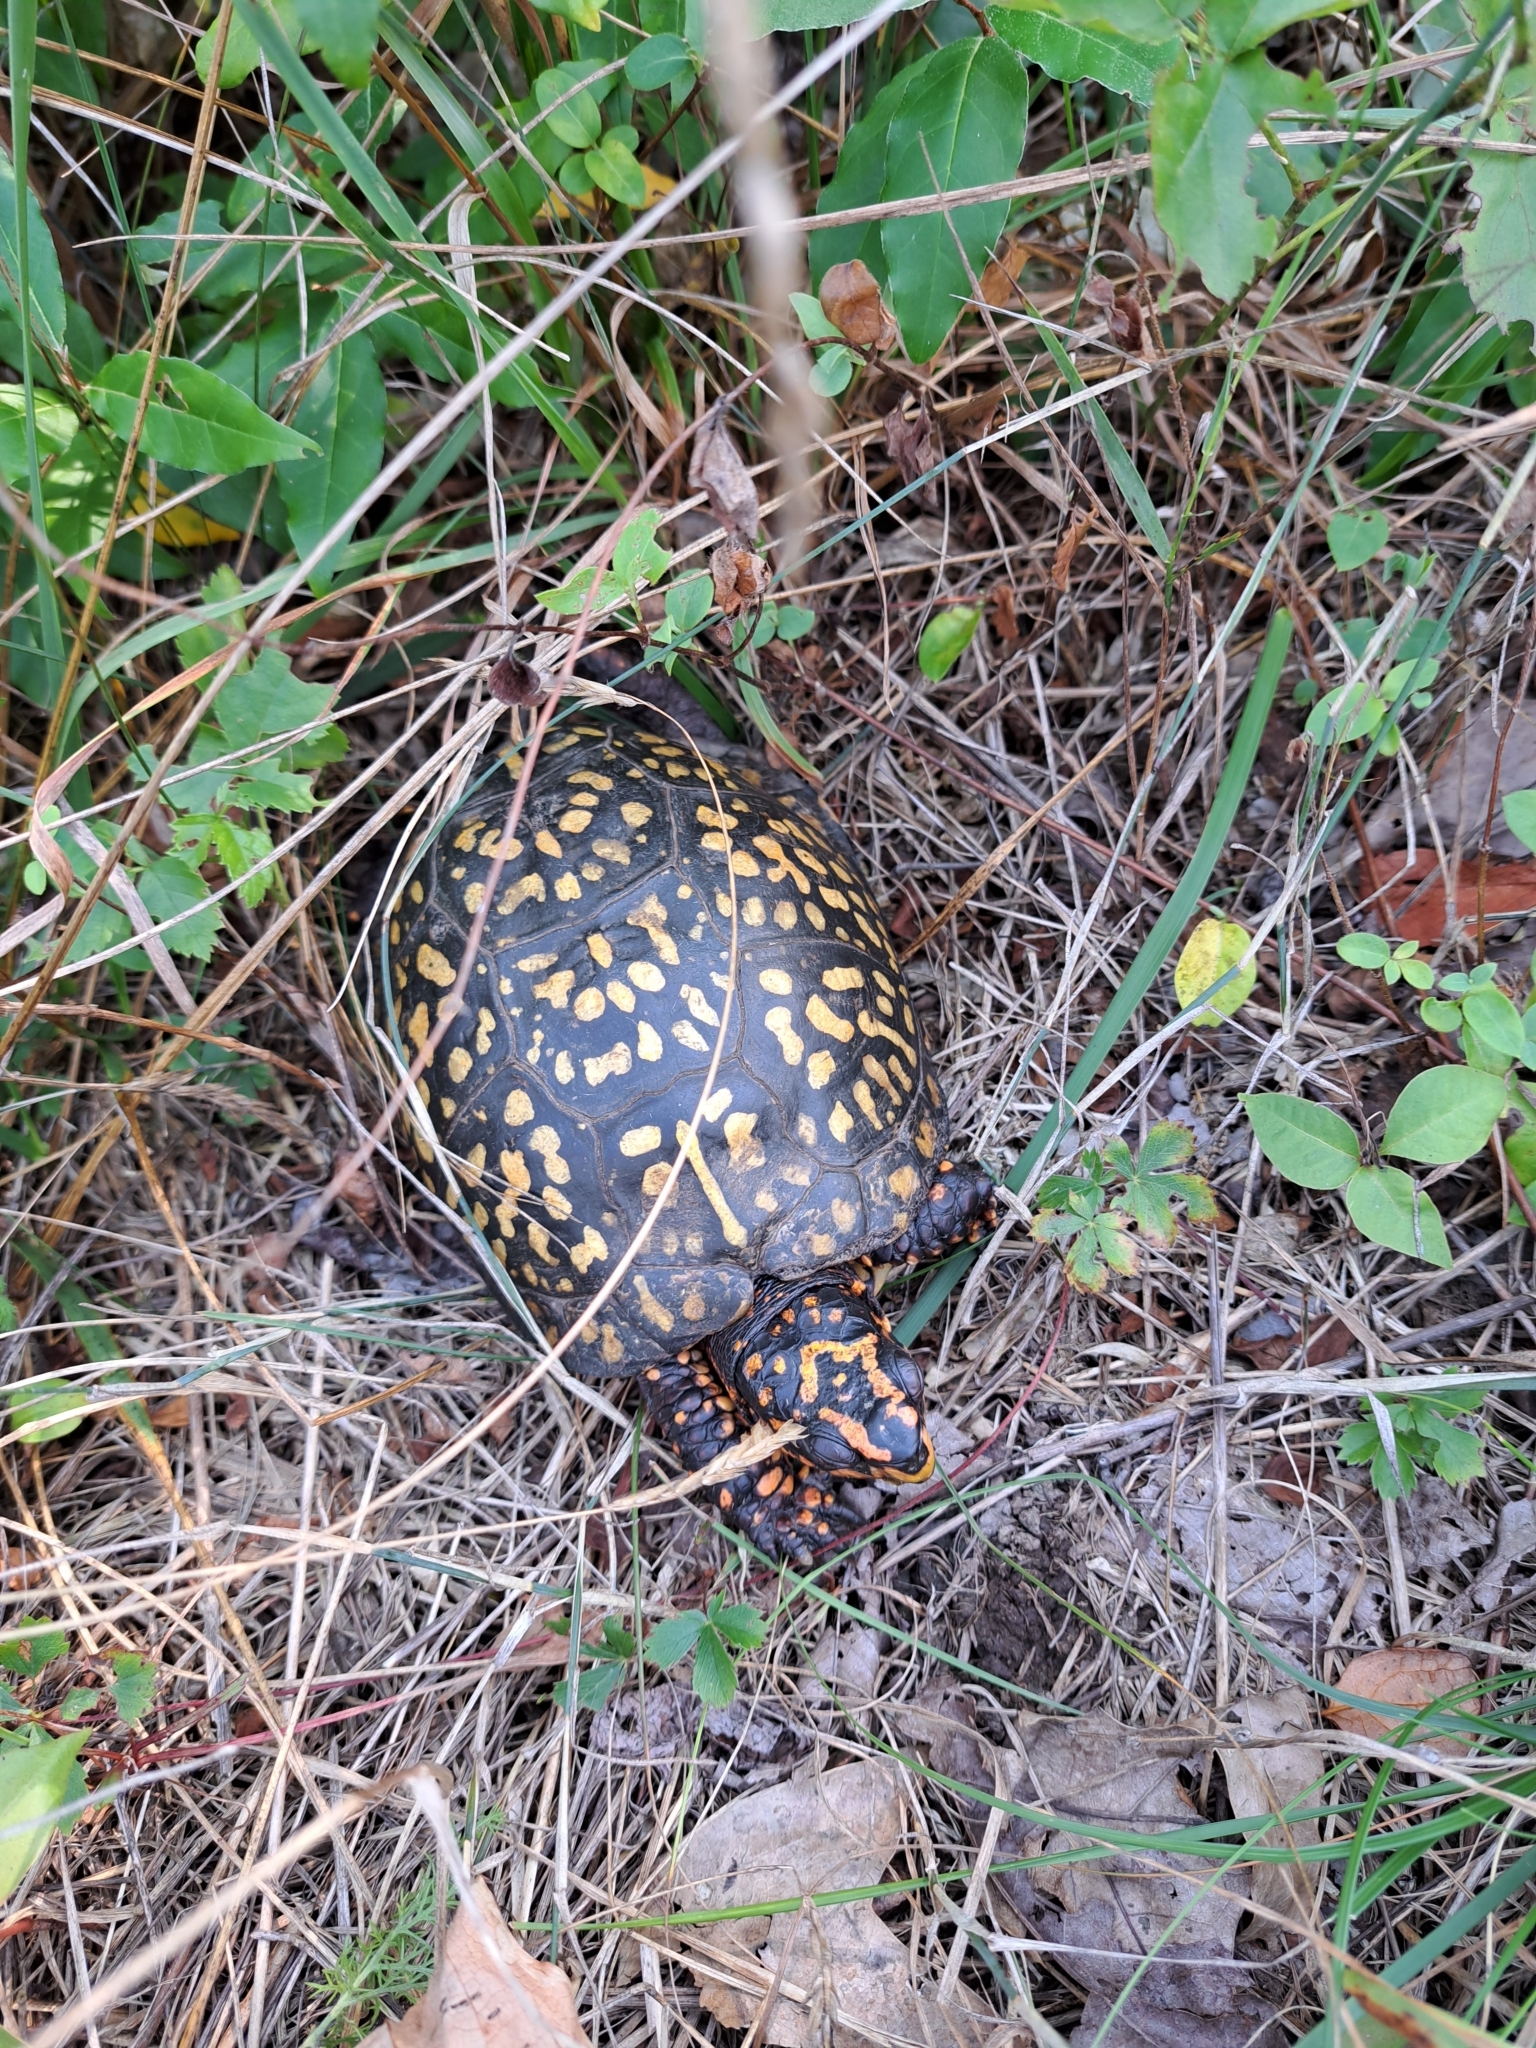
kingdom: Animalia
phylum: Chordata
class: Testudines
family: Emydidae
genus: Terrapene
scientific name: Terrapene carolina
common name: Common box turtle
